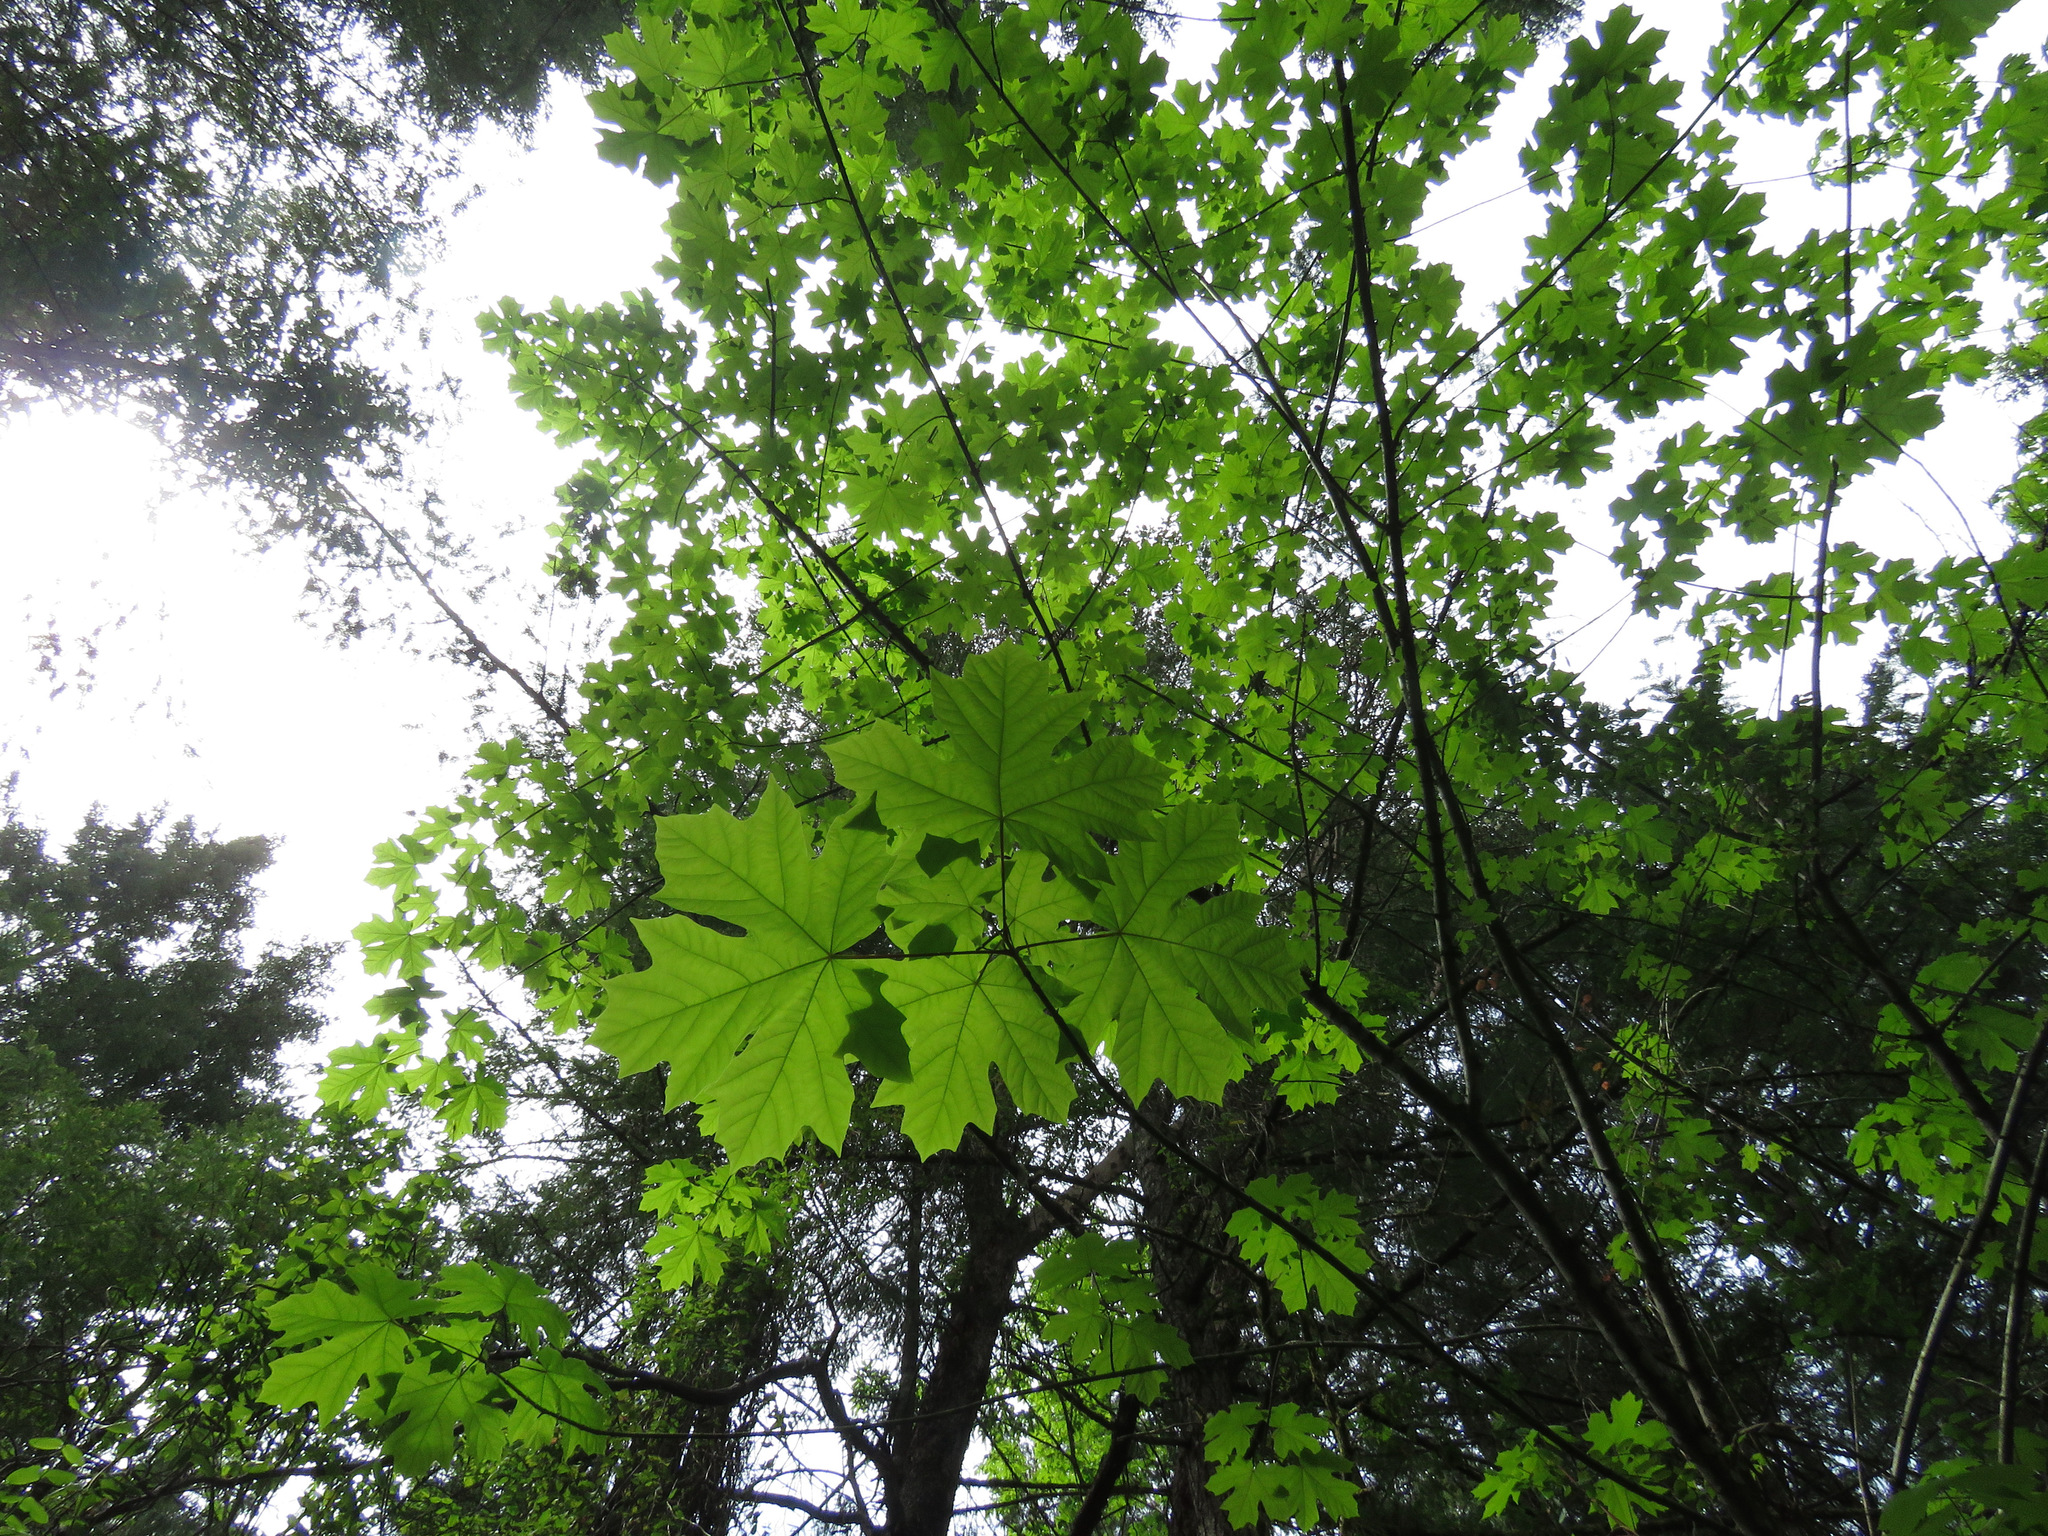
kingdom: Plantae
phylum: Tracheophyta
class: Magnoliopsida
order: Sapindales
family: Sapindaceae
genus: Acer
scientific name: Acer macrophyllum
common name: Oregon maple
